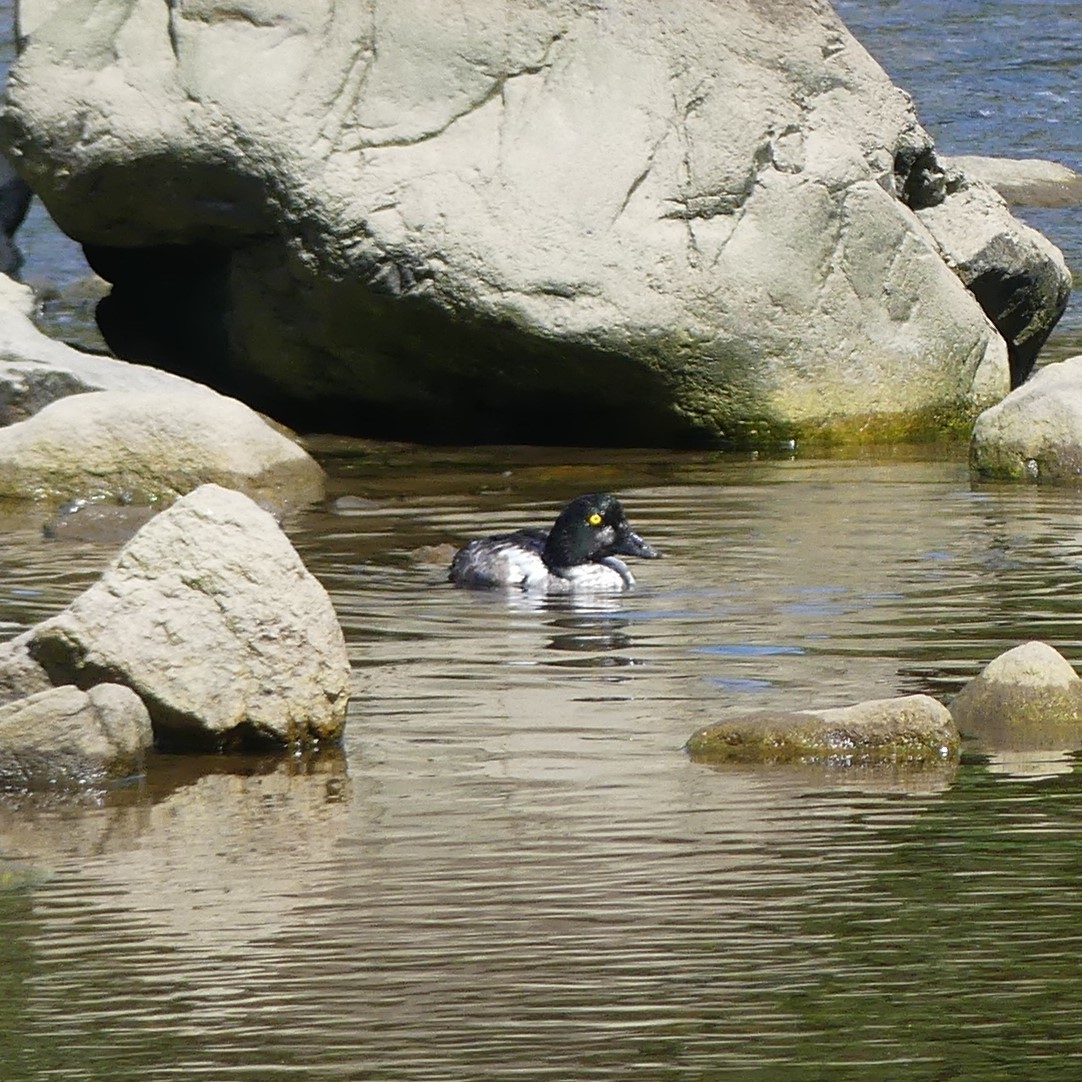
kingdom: Animalia
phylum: Chordata
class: Aves
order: Anseriformes
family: Anatidae
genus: Bucephala
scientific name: Bucephala clangula
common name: Common goldeneye
